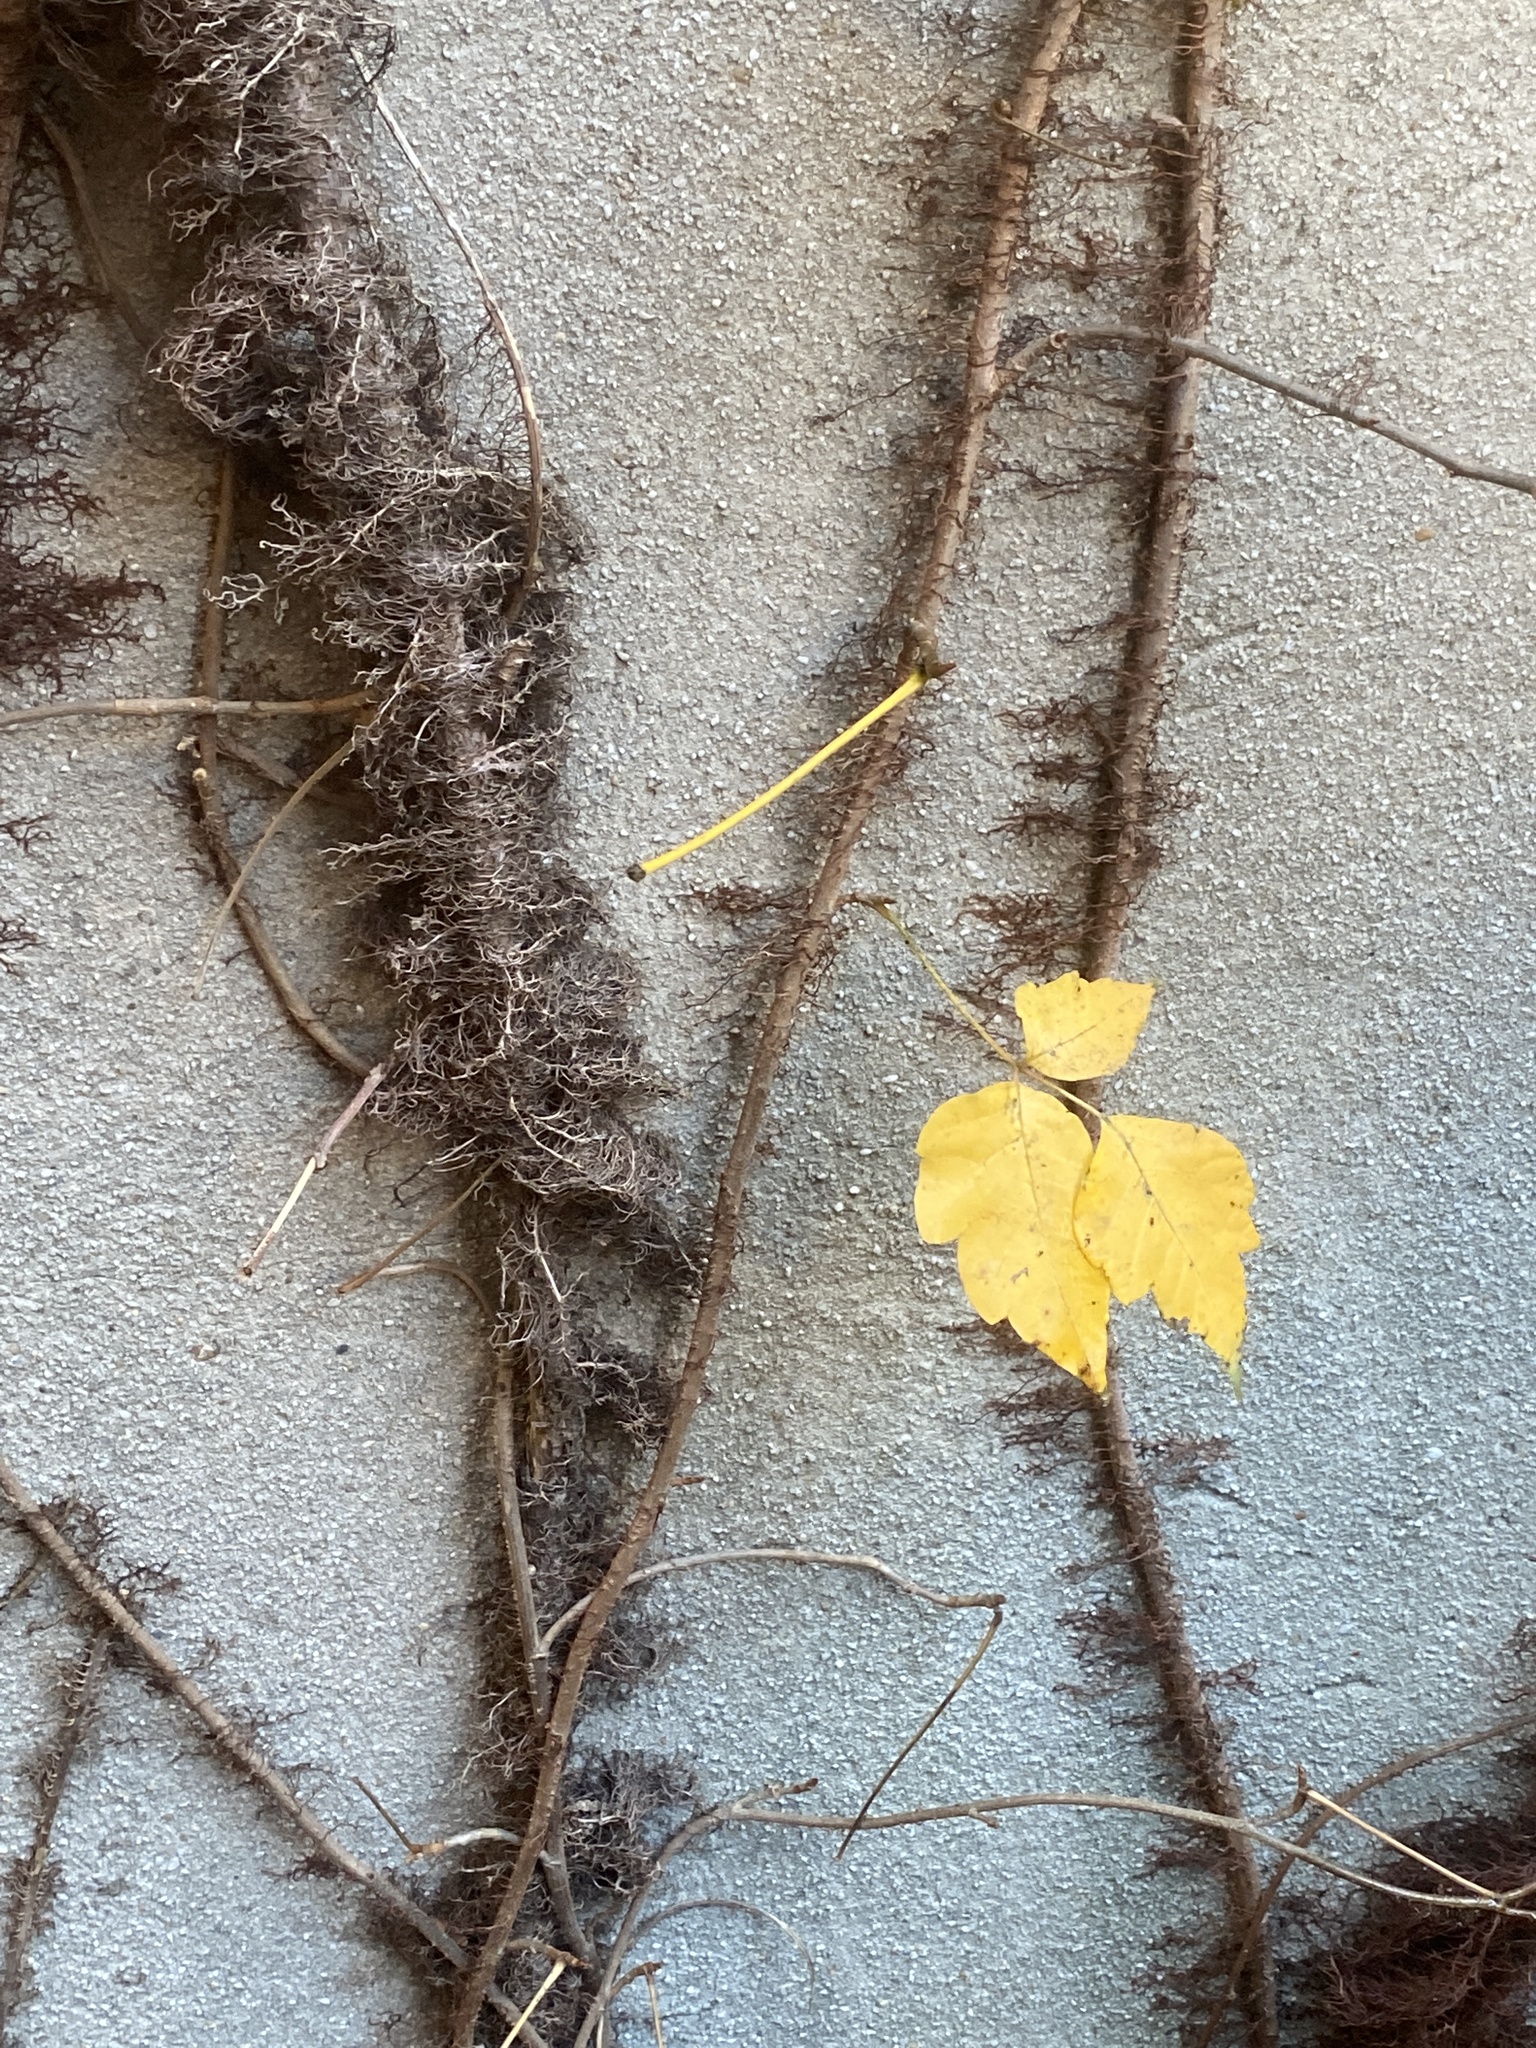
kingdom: Plantae
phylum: Tracheophyta
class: Magnoliopsida
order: Sapindales
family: Anacardiaceae
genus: Toxicodendron
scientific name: Toxicodendron radicans
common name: Poison ivy
